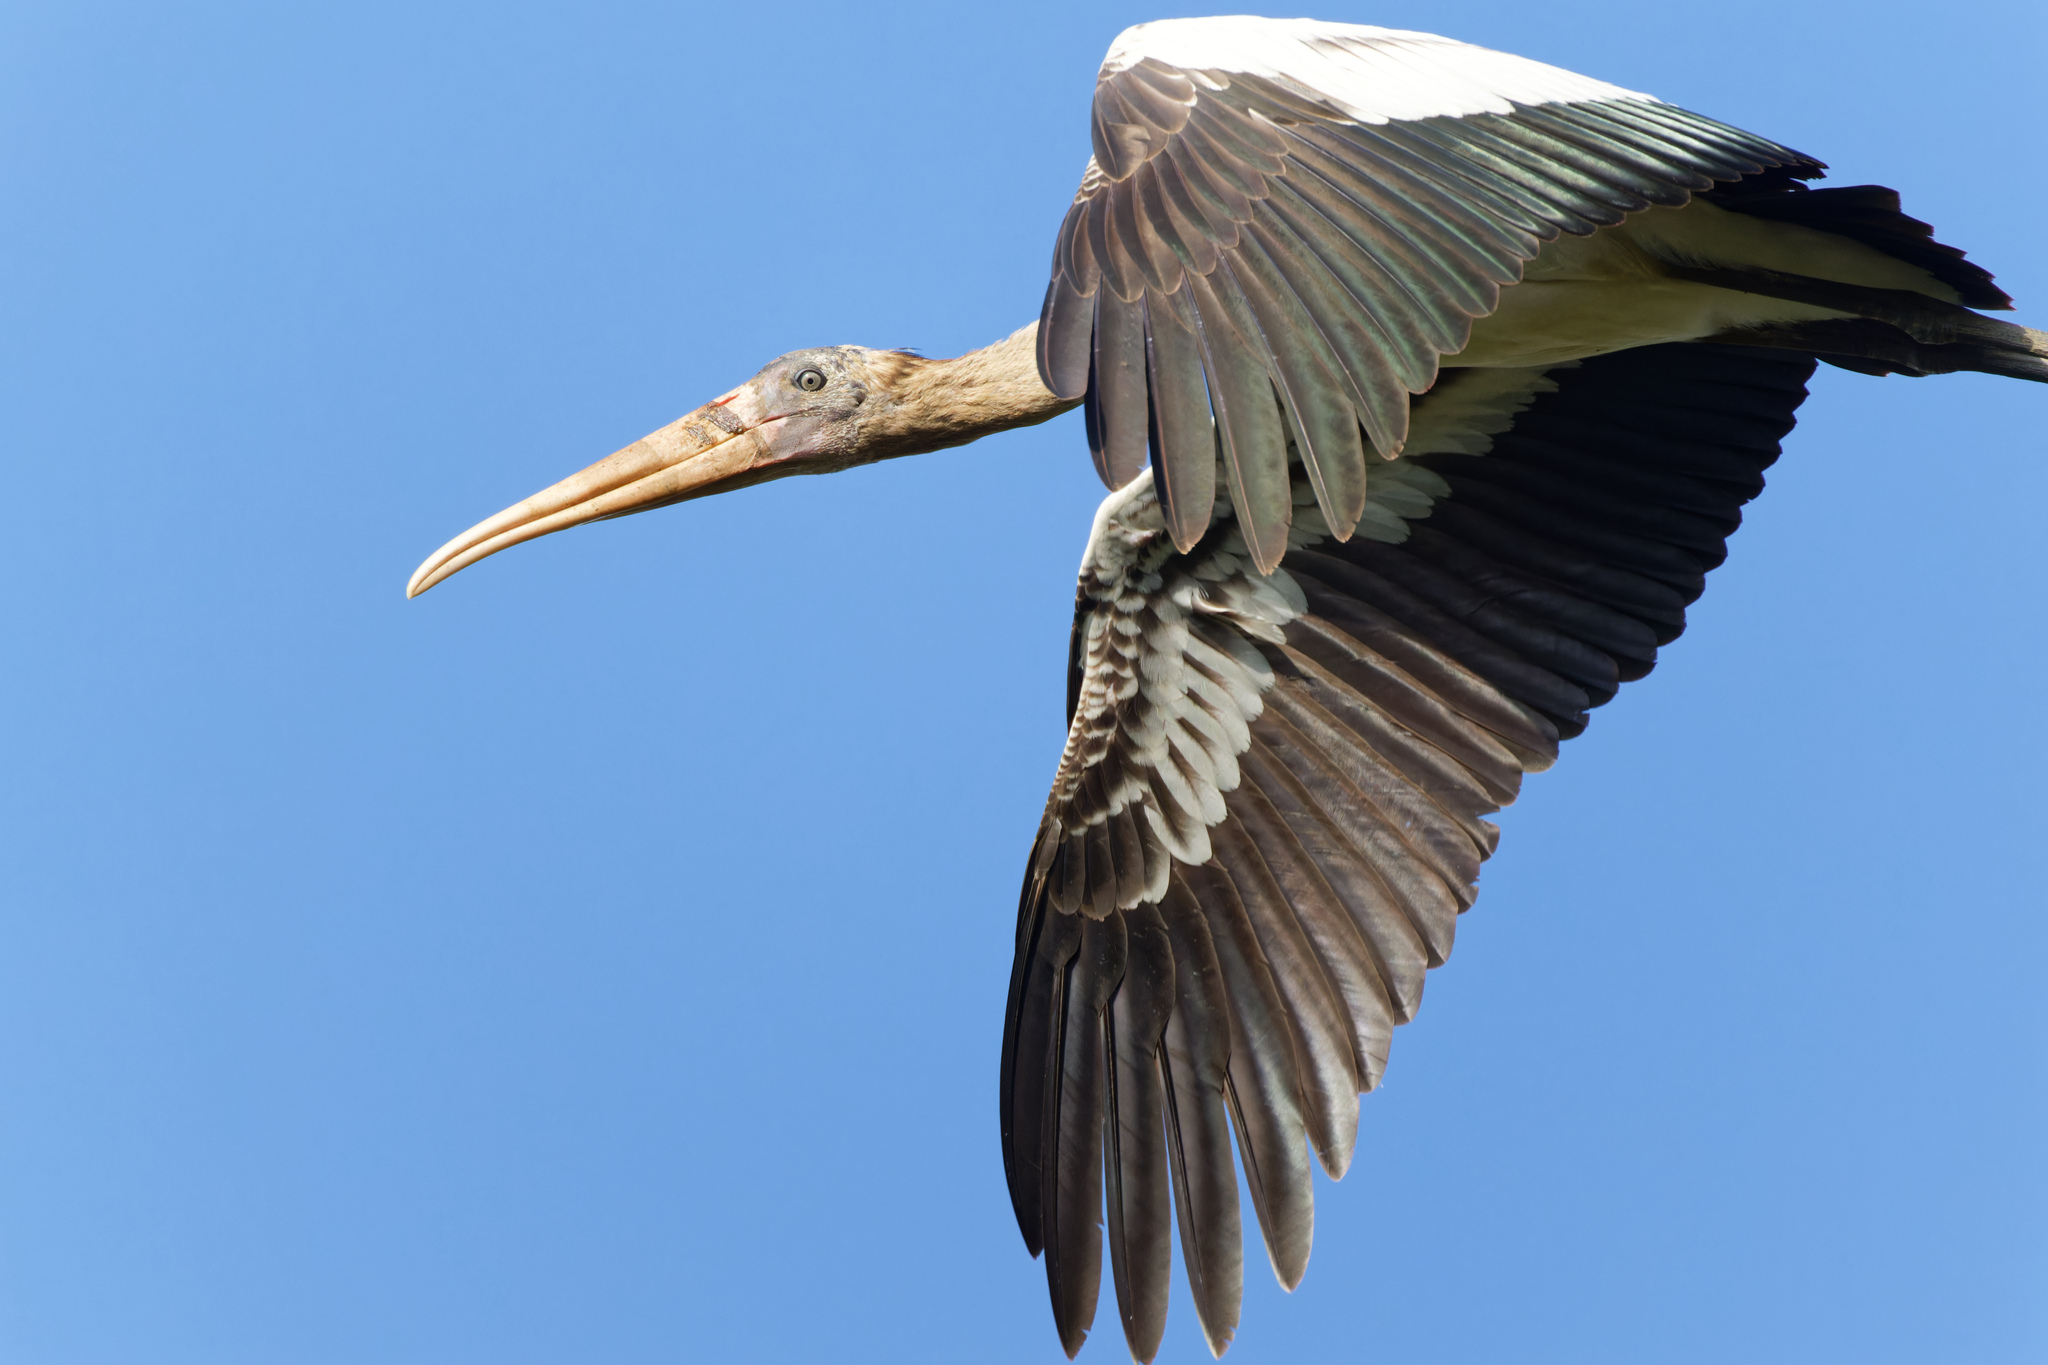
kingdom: Animalia
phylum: Chordata
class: Aves
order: Ciconiiformes
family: Ciconiidae
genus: Mycteria
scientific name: Mycteria americana
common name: Wood stork
